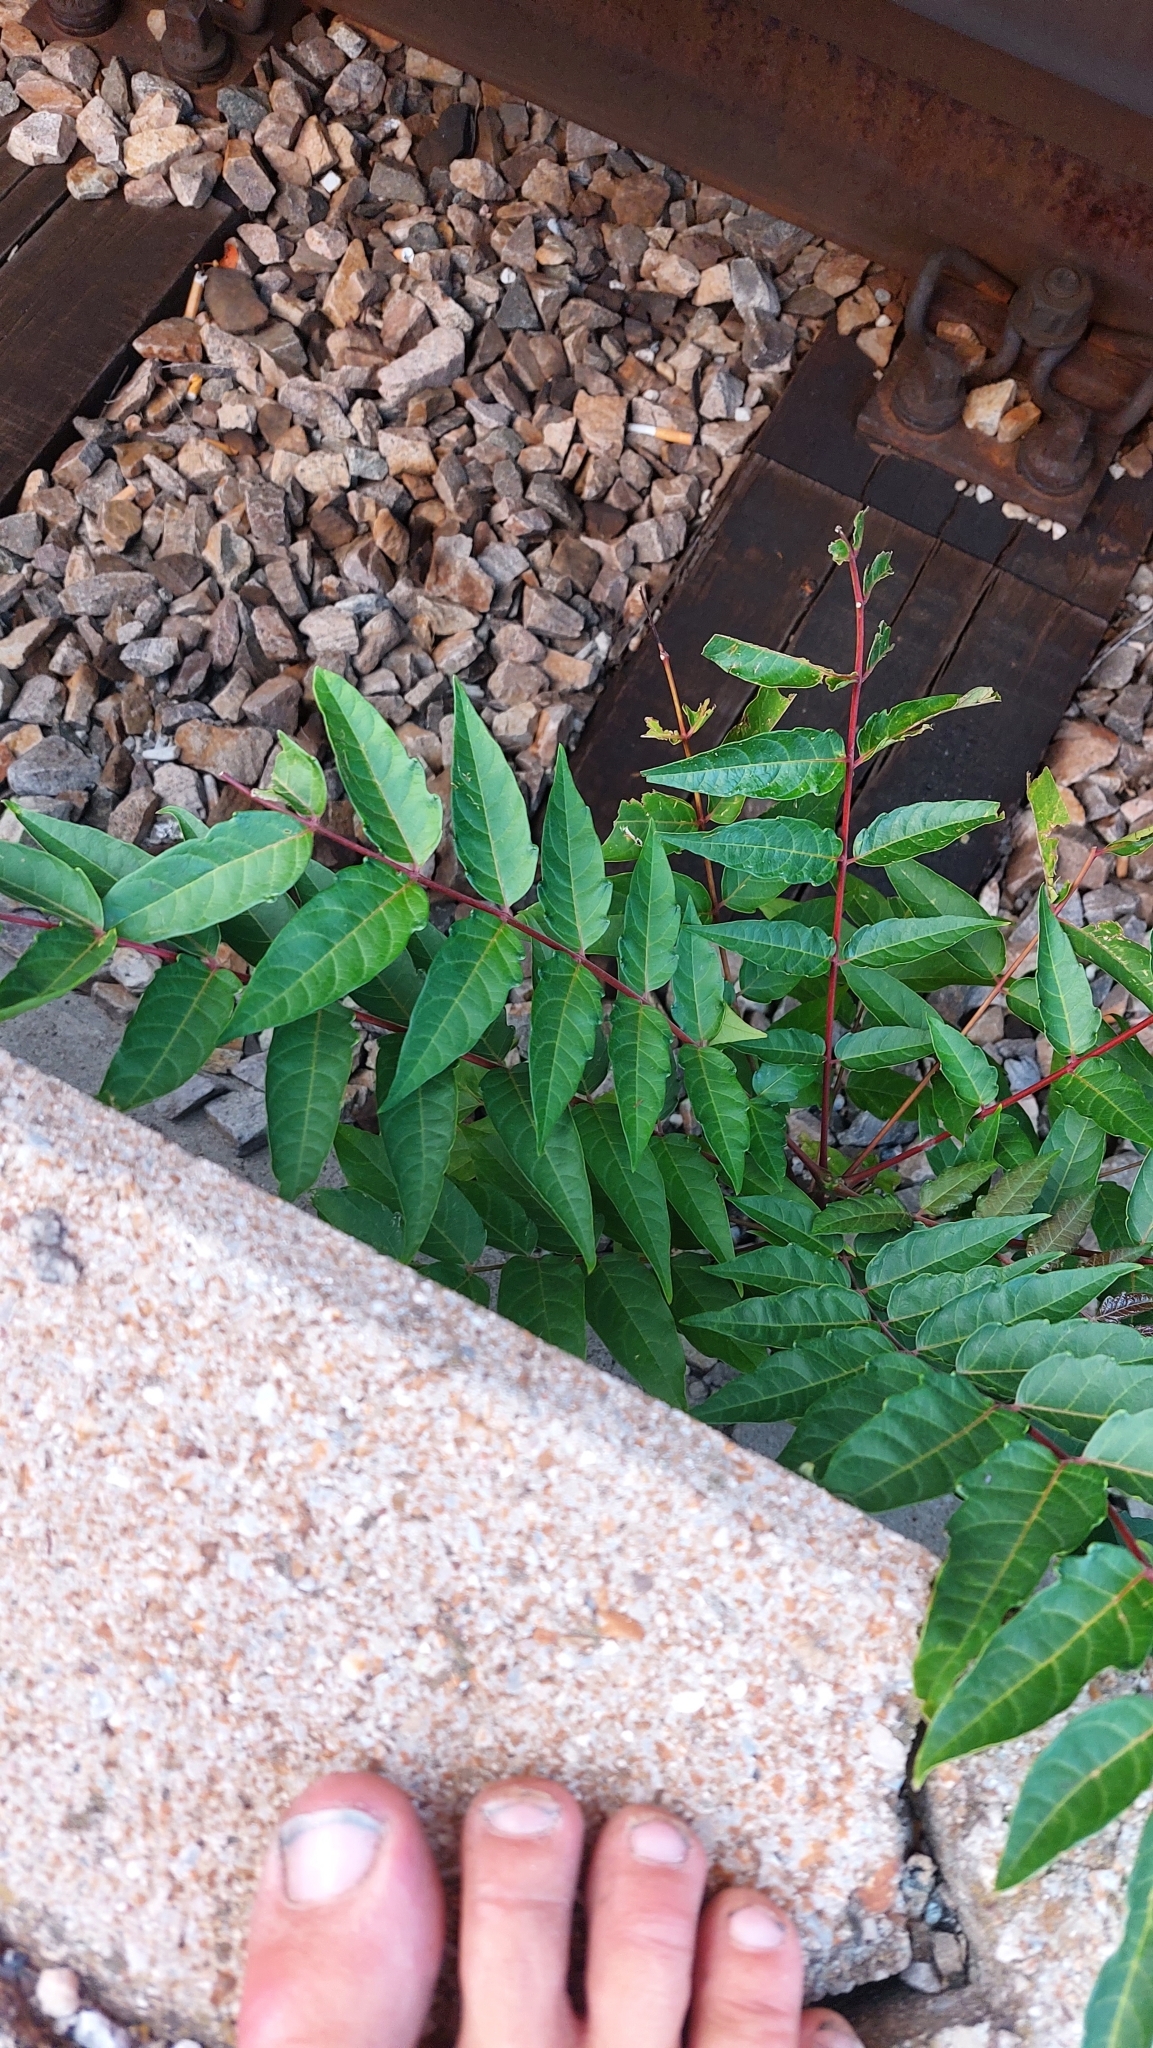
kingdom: Plantae
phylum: Tracheophyta
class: Magnoliopsida
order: Sapindales
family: Simaroubaceae
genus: Ailanthus
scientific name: Ailanthus altissima
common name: Tree-of-heaven
